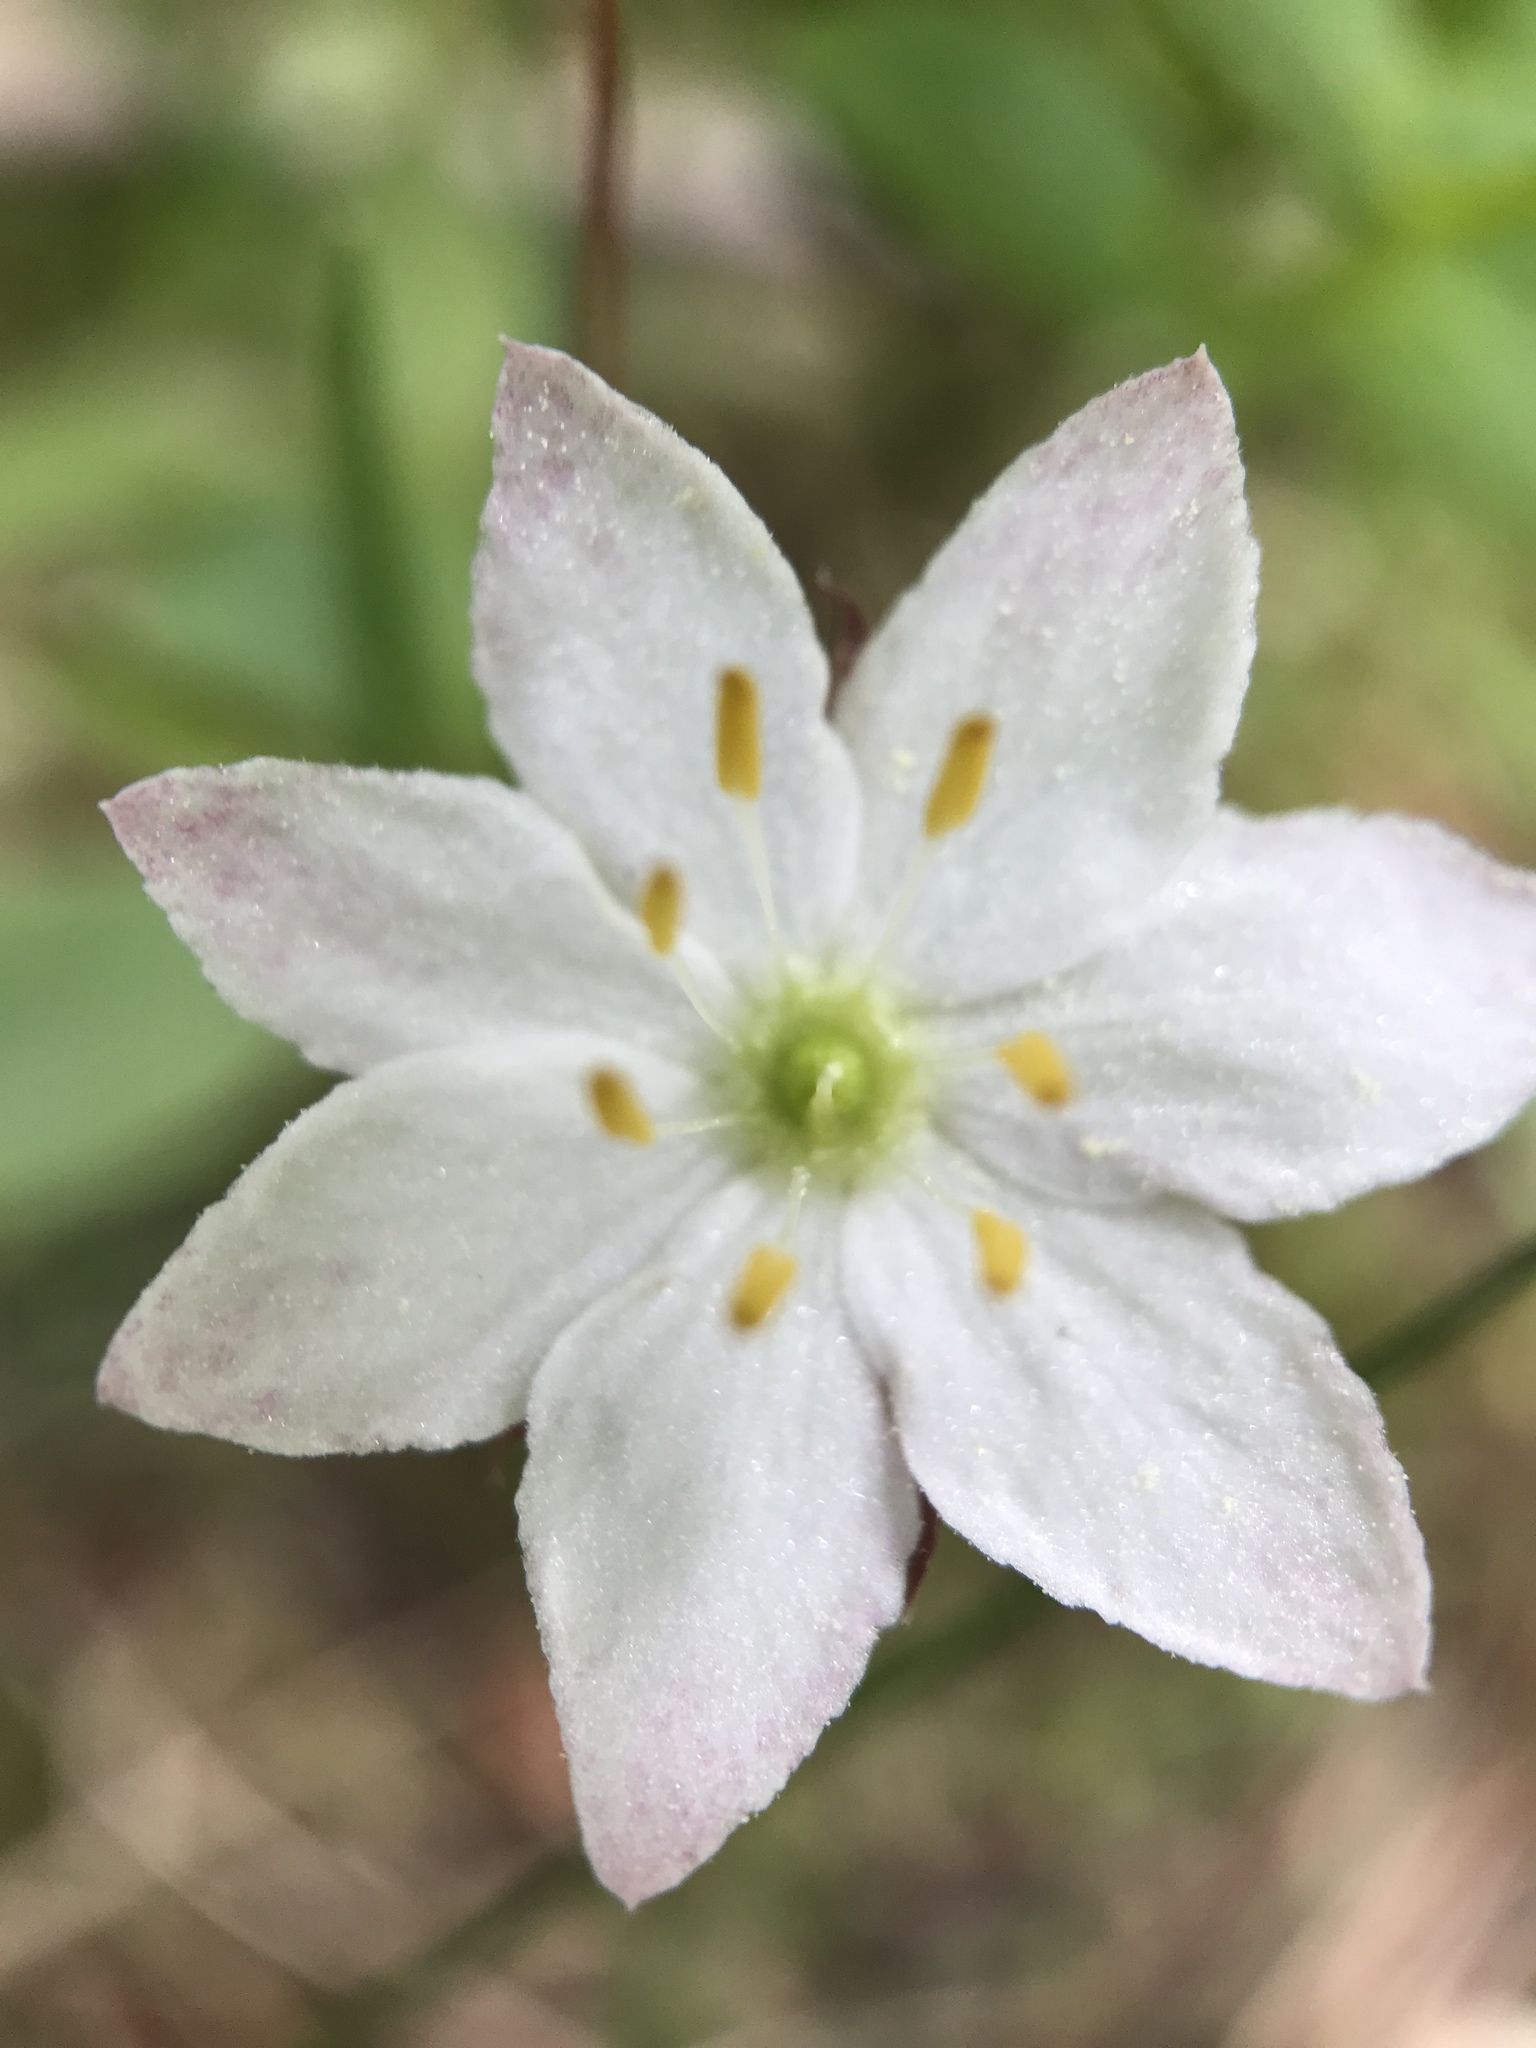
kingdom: Plantae
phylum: Tracheophyta
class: Magnoliopsida
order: Ericales
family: Primulaceae
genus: Lysimachia
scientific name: Lysimachia europaea
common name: Arctic starflower
